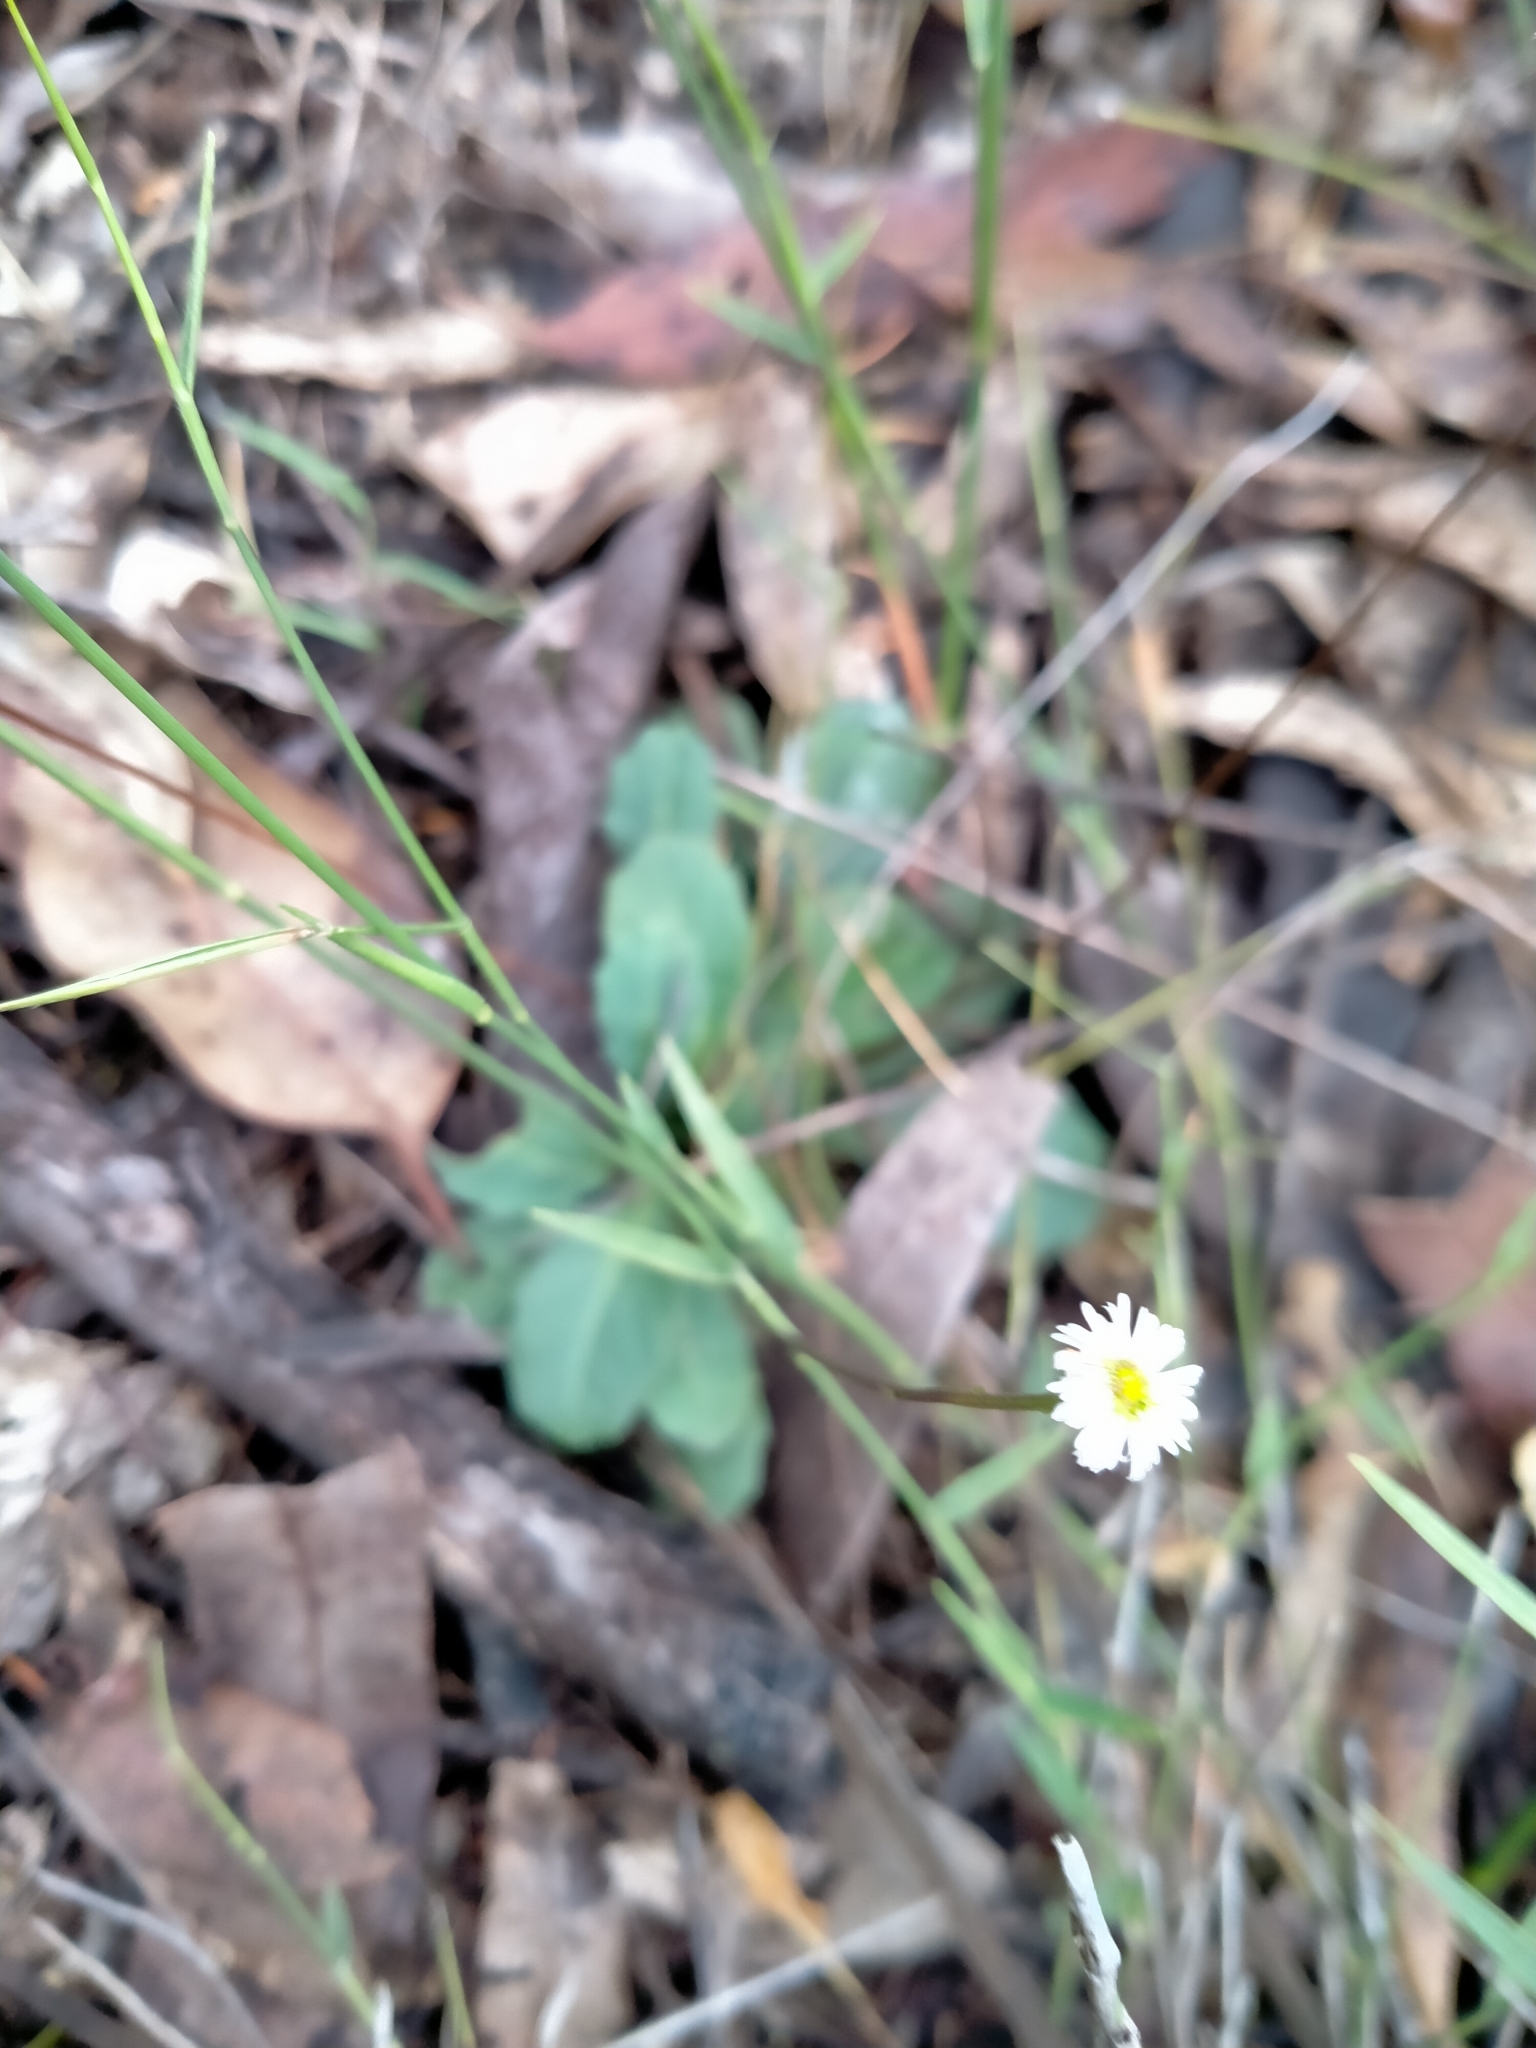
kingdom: Plantae
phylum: Tracheophyta
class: Magnoliopsida
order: Asterales
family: Asteraceae
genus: Lagenophora
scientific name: Lagenophora sublyrata ter
